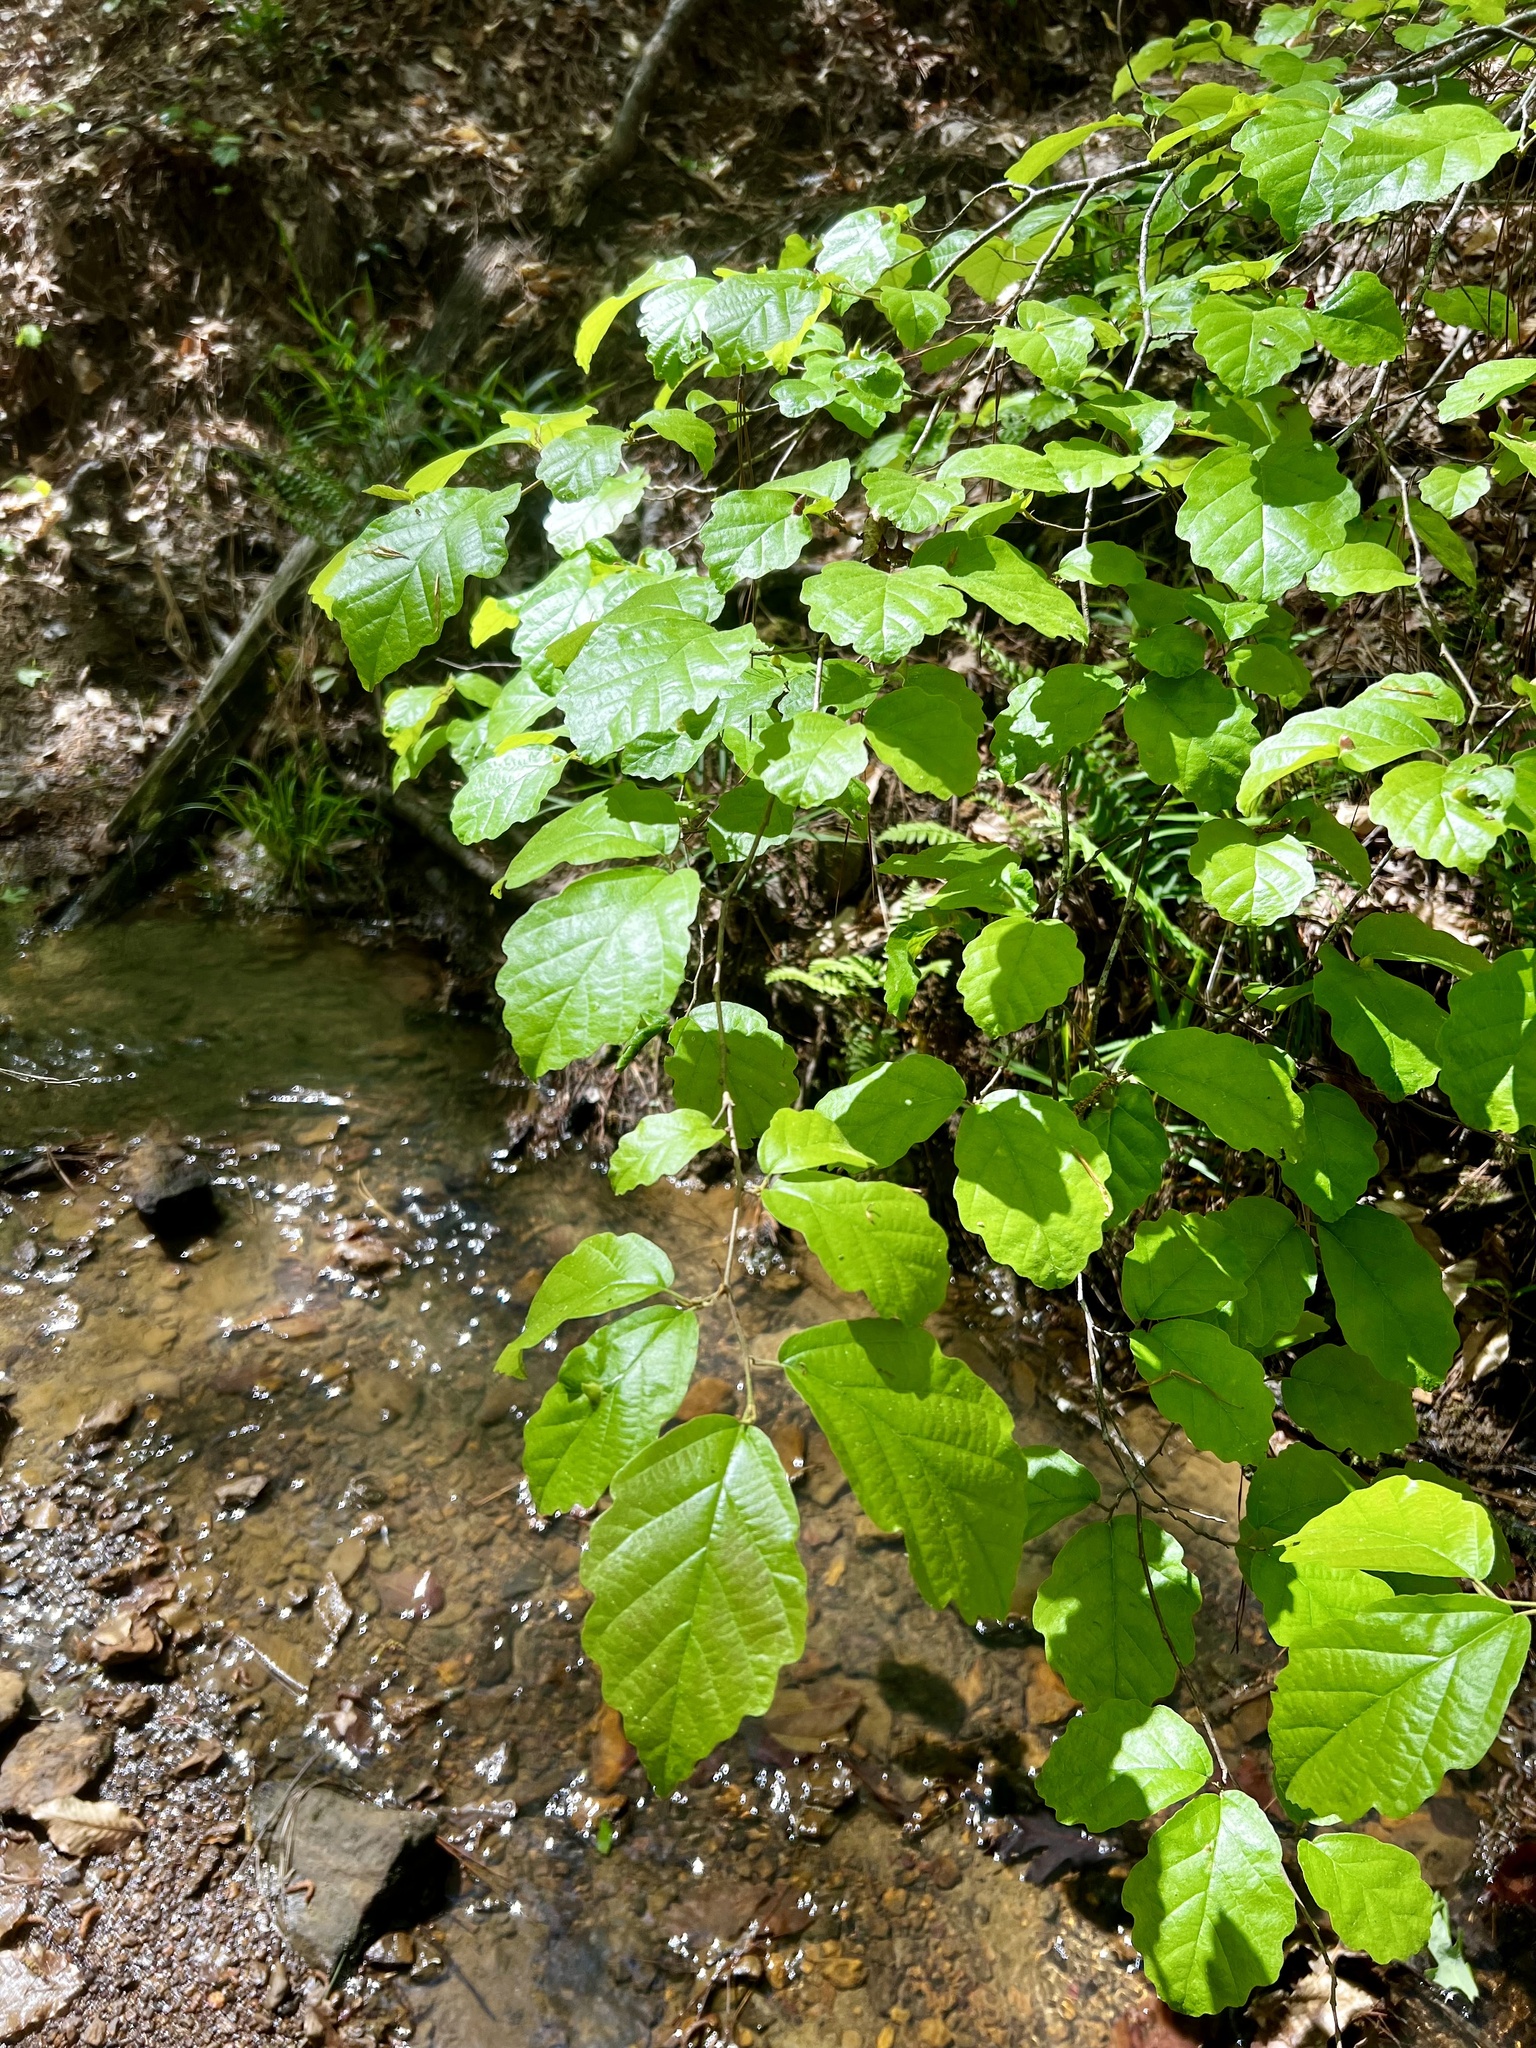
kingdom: Plantae
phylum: Tracheophyta
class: Magnoliopsida
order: Saxifragales
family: Hamamelidaceae
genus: Hamamelis
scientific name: Hamamelis virginiana
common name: Witch-hazel
